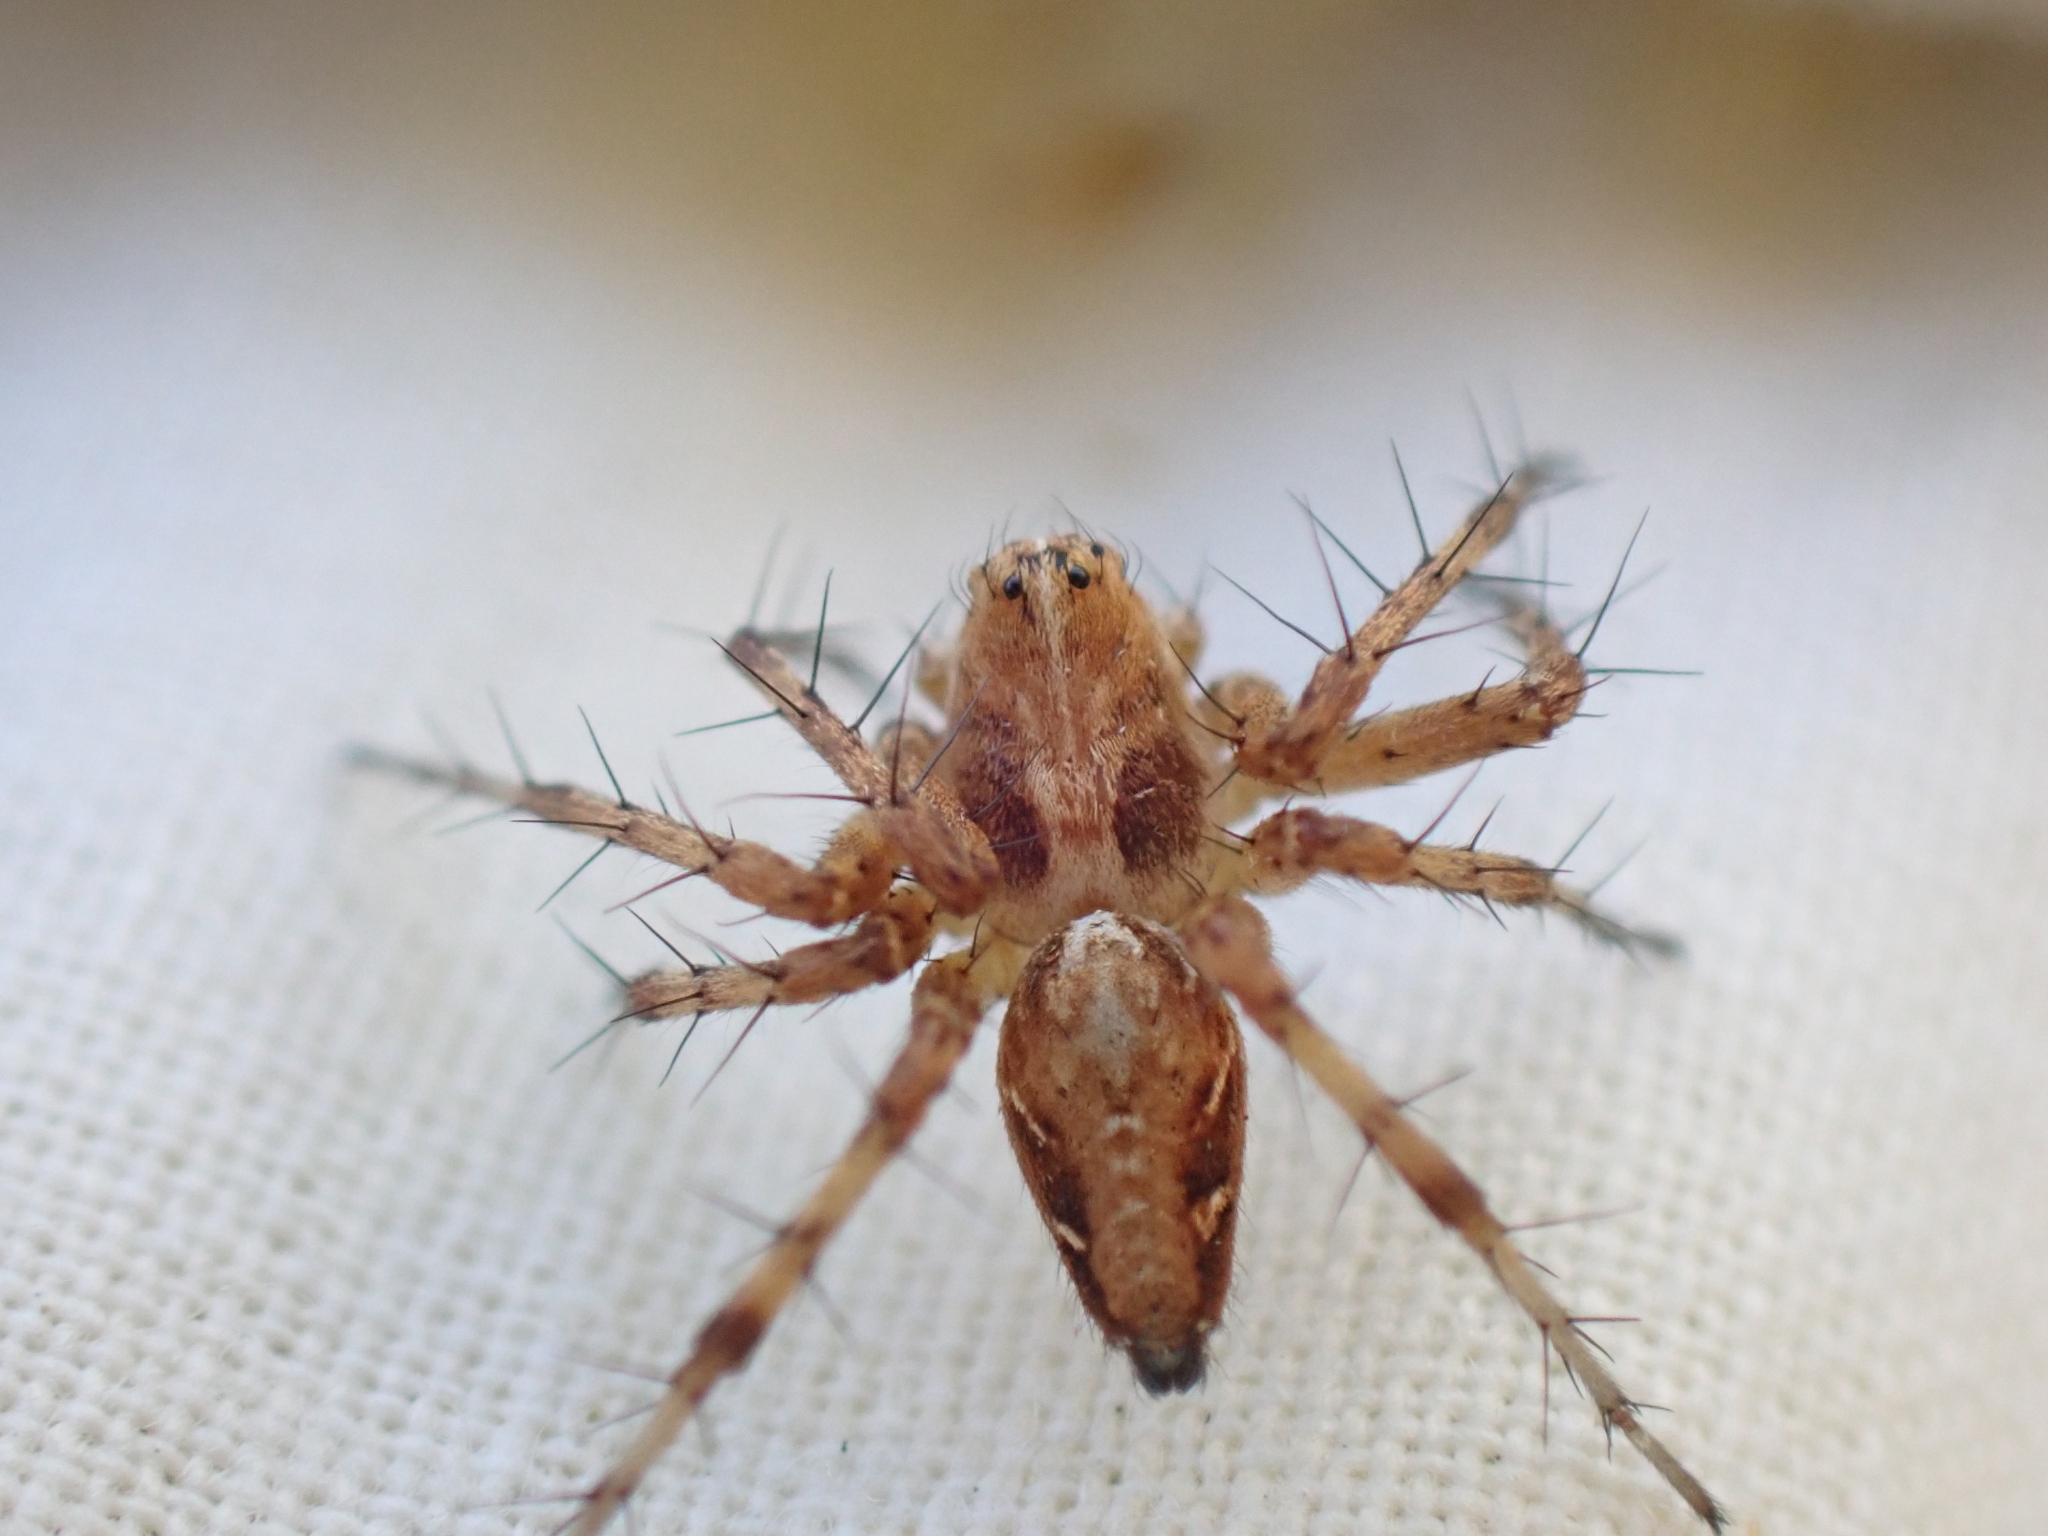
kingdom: Animalia
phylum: Arthropoda
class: Arachnida
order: Araneae
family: Oxyopidae
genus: Oxyopes
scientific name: Oxyopes scalaris
